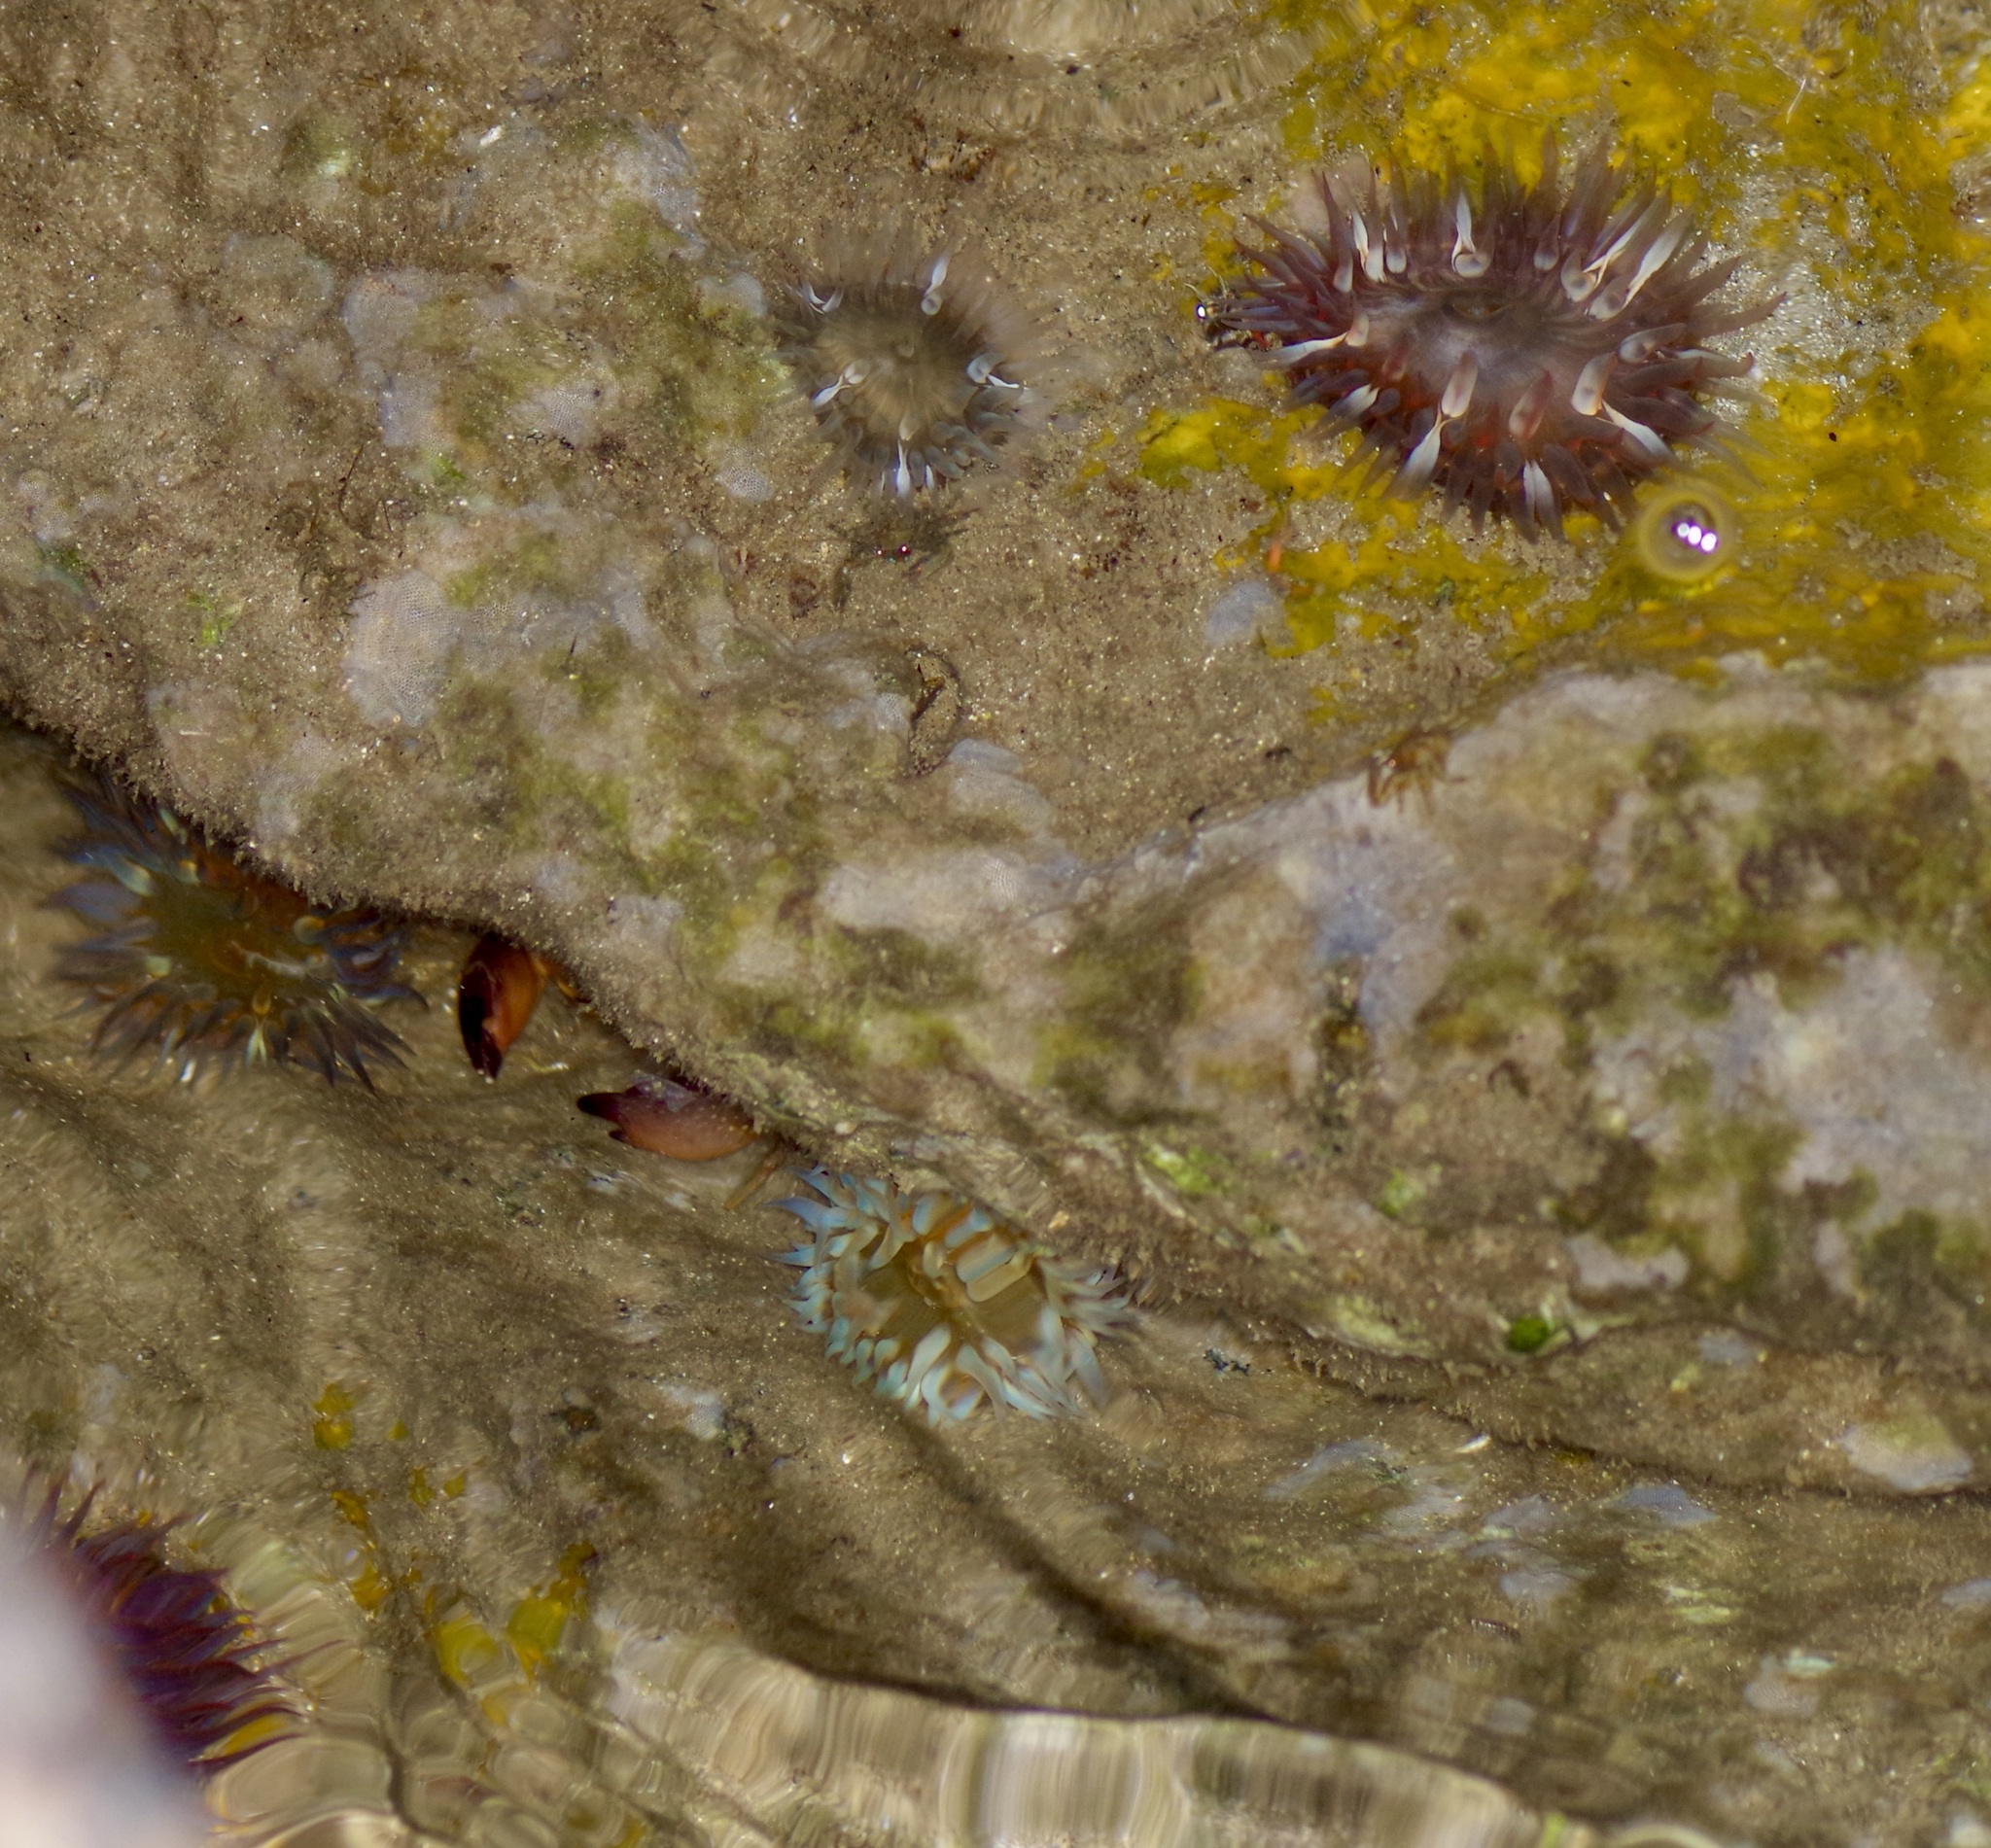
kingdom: Animalia
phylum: Cnidaria
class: Anthozoa
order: Actiniaria
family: Actiniidae
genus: Bunodosoma
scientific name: Bunodosoma cavernatum
